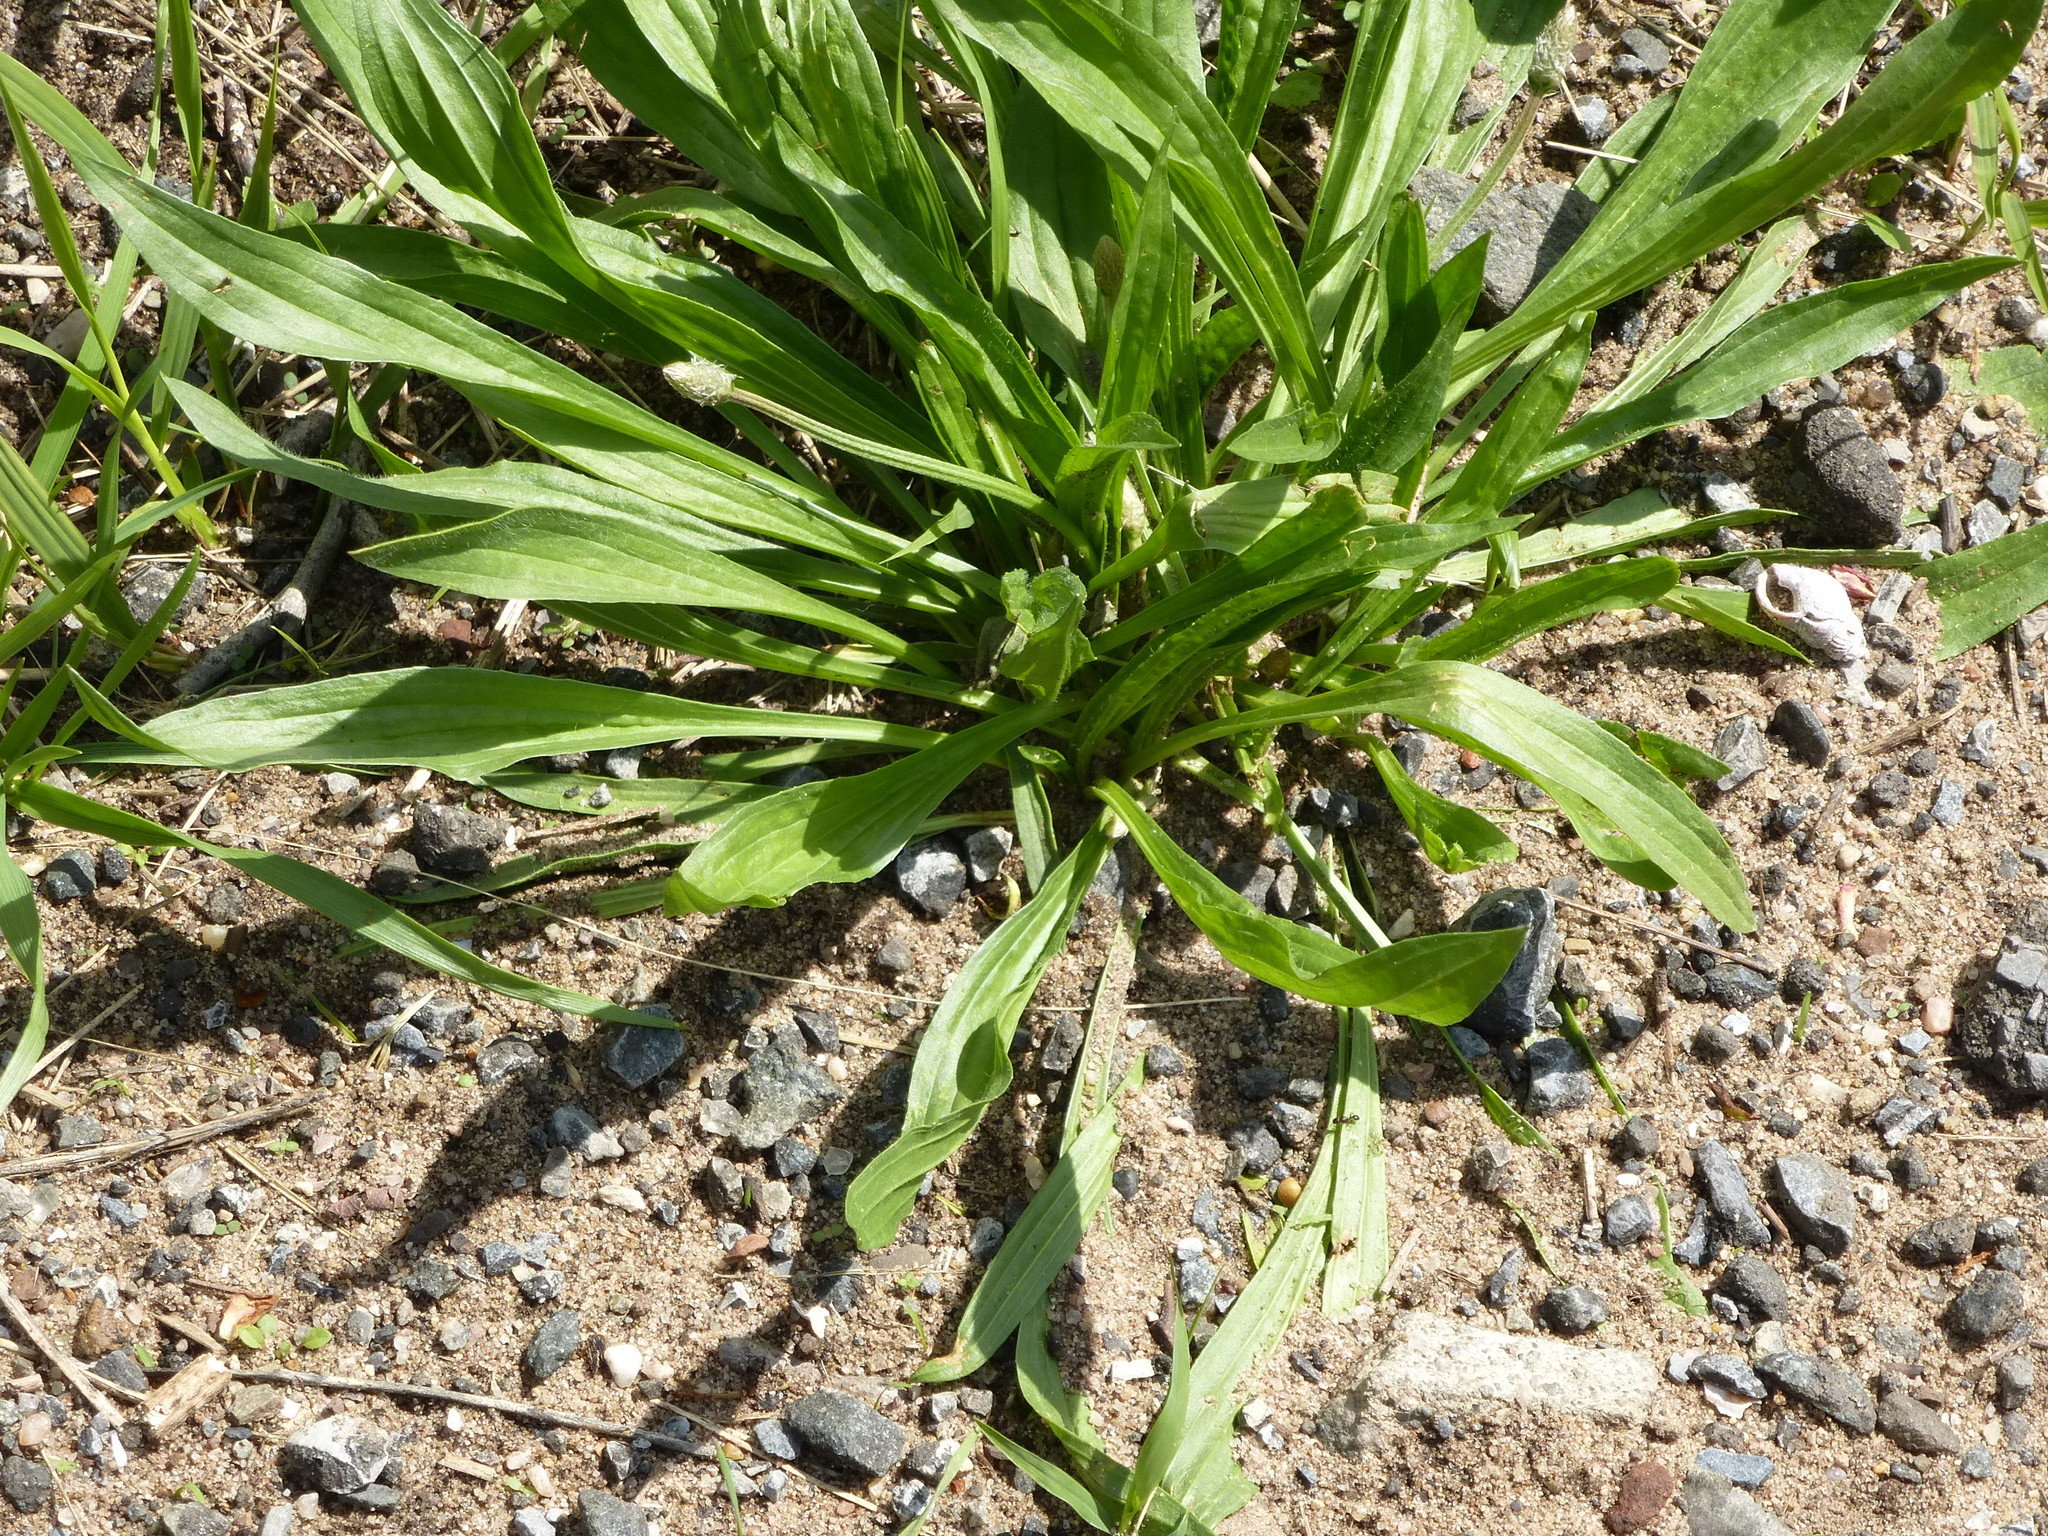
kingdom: Plantae
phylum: Tracheophyta
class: Magnoliopsida
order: Lamiales
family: Plantaginaceae
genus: Plantago
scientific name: Plantago lanceolata
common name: Ribwort plantain
